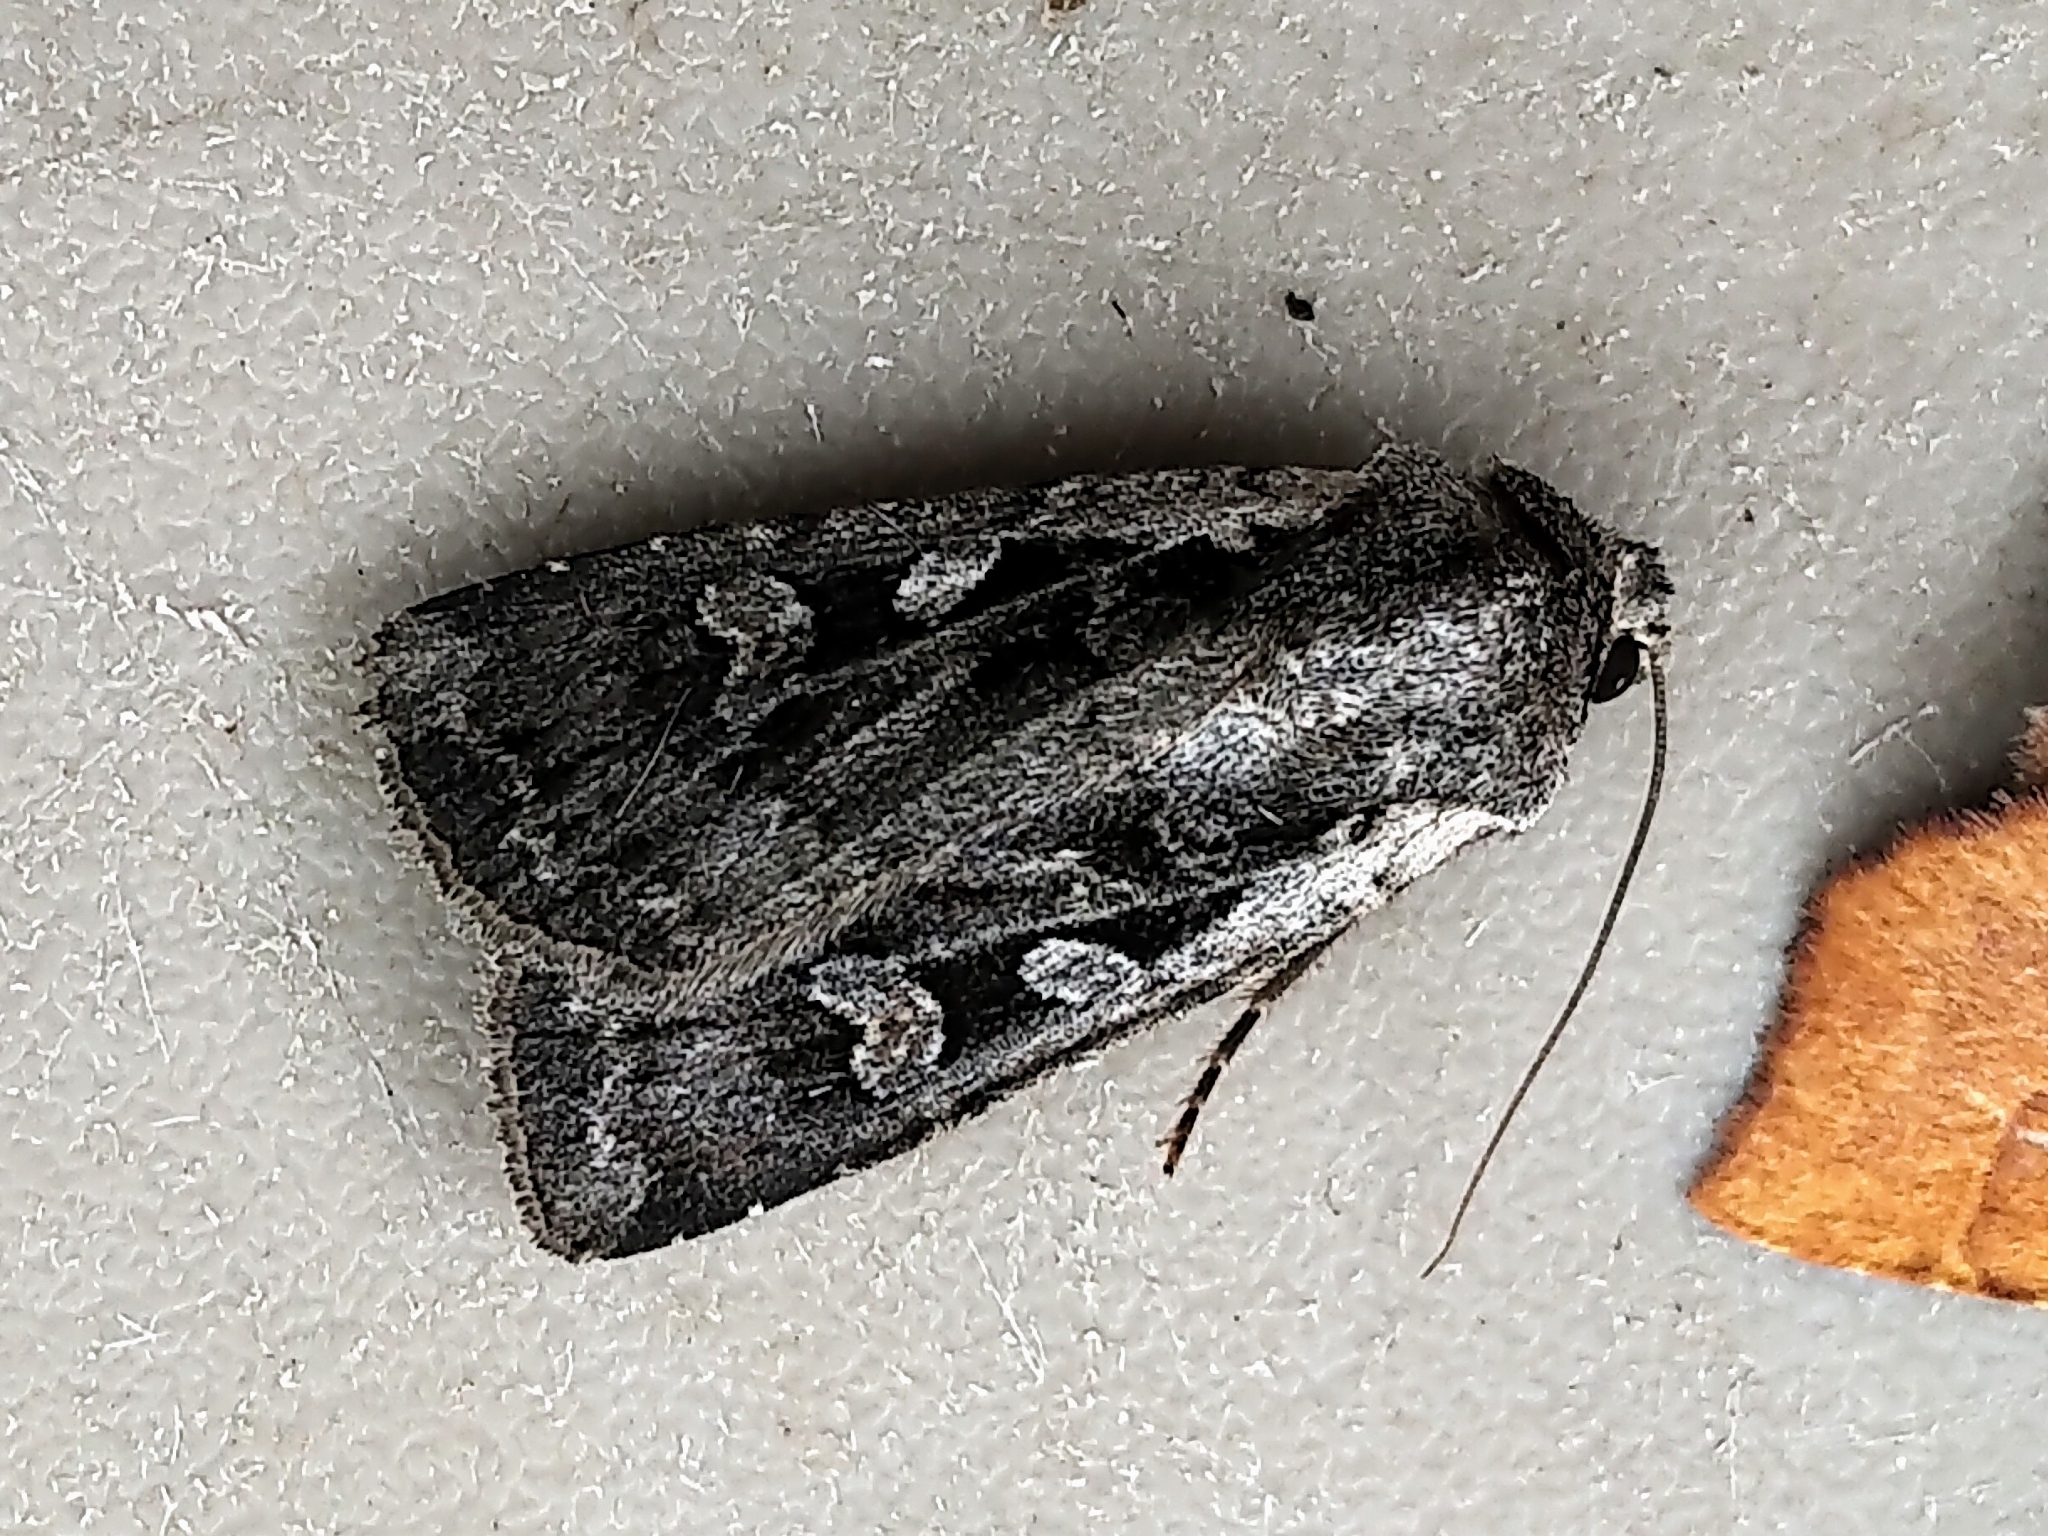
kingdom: Animalia
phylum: Arthropoda
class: Insecta
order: Lepidoptera
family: Noctuidae
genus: Euxoa
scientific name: Euxoa tessellata
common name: Striped cutworm
